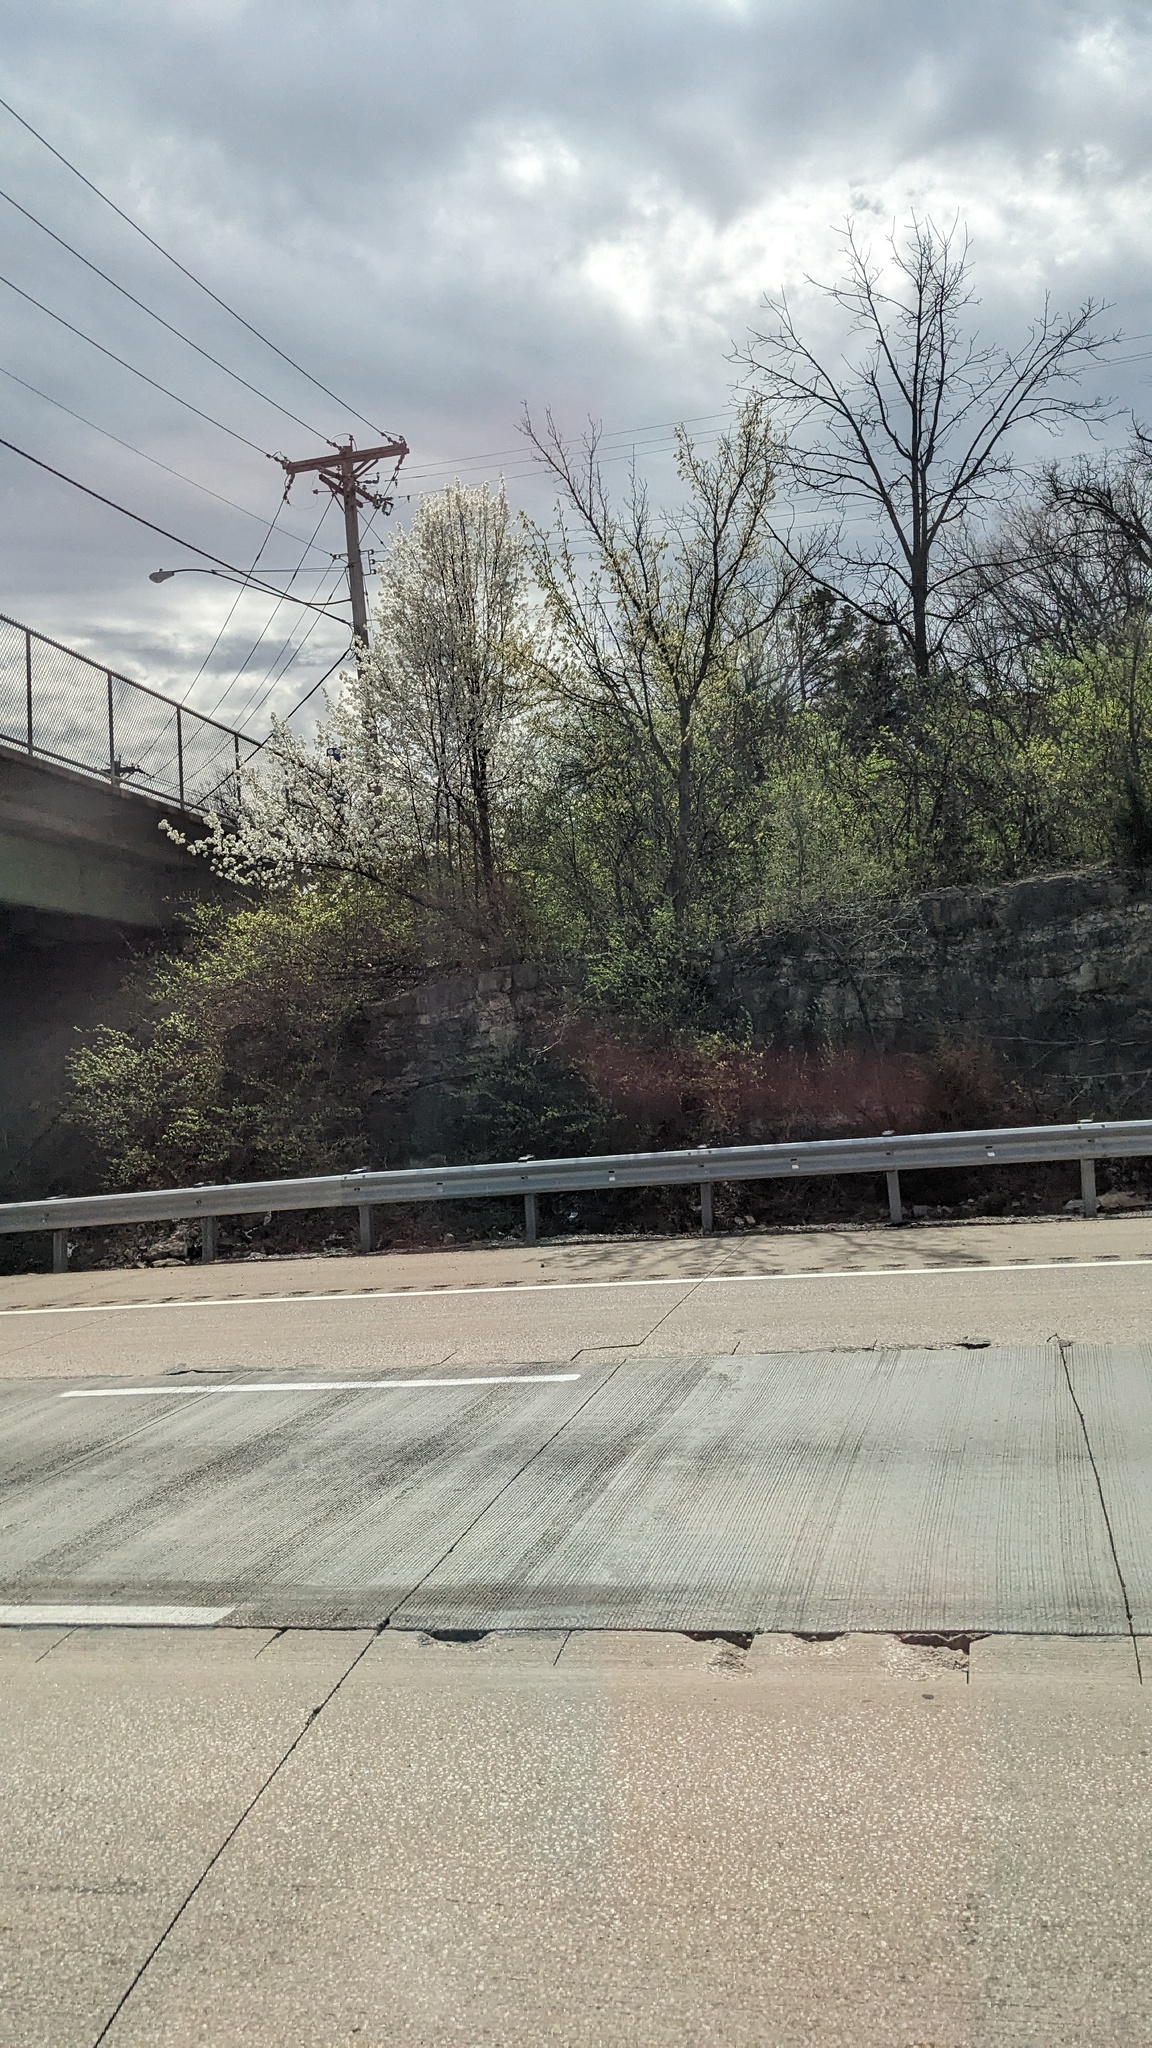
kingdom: Plantae
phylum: Tracheophyta
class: Magnoliopsida
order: Rosales
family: Rosaceae
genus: Pyrus
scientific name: Pyrus calleryana
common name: Callery pear
